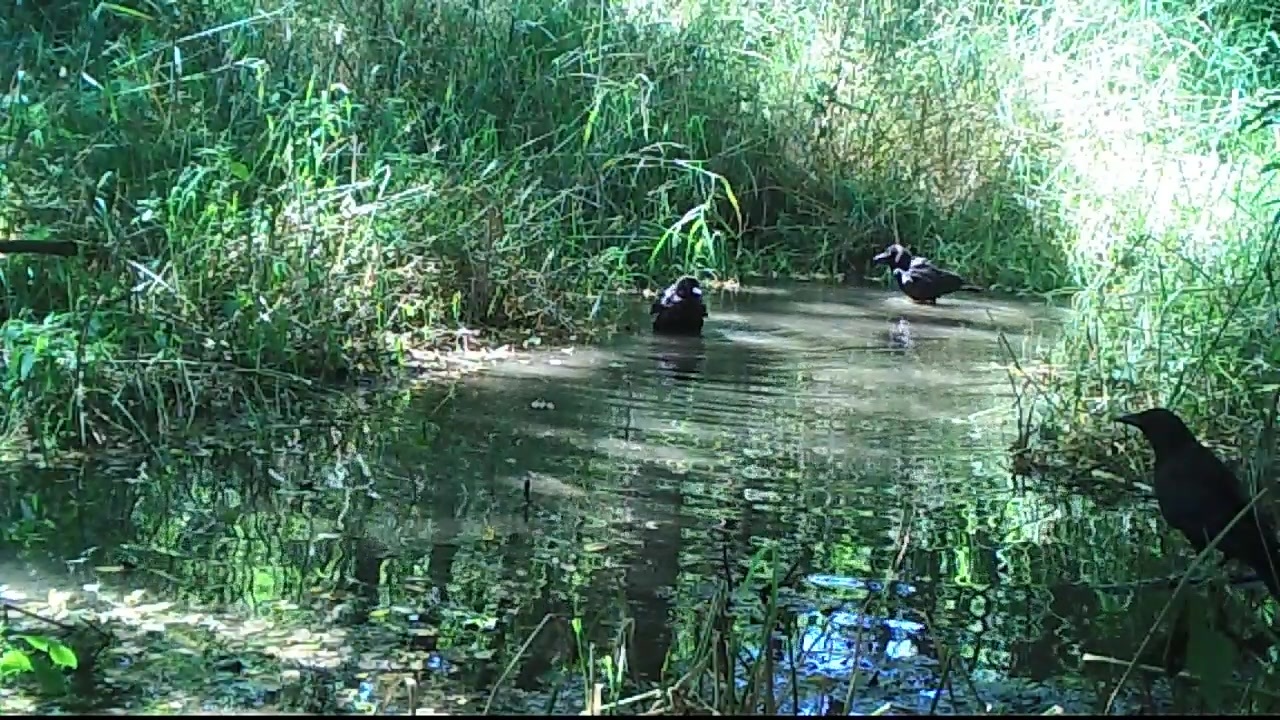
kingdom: Animalia
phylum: Chordata
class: Aves
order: Passeriformes
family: Corvidae
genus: Corvus
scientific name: Corvus brachyrhynchos
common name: American crow
